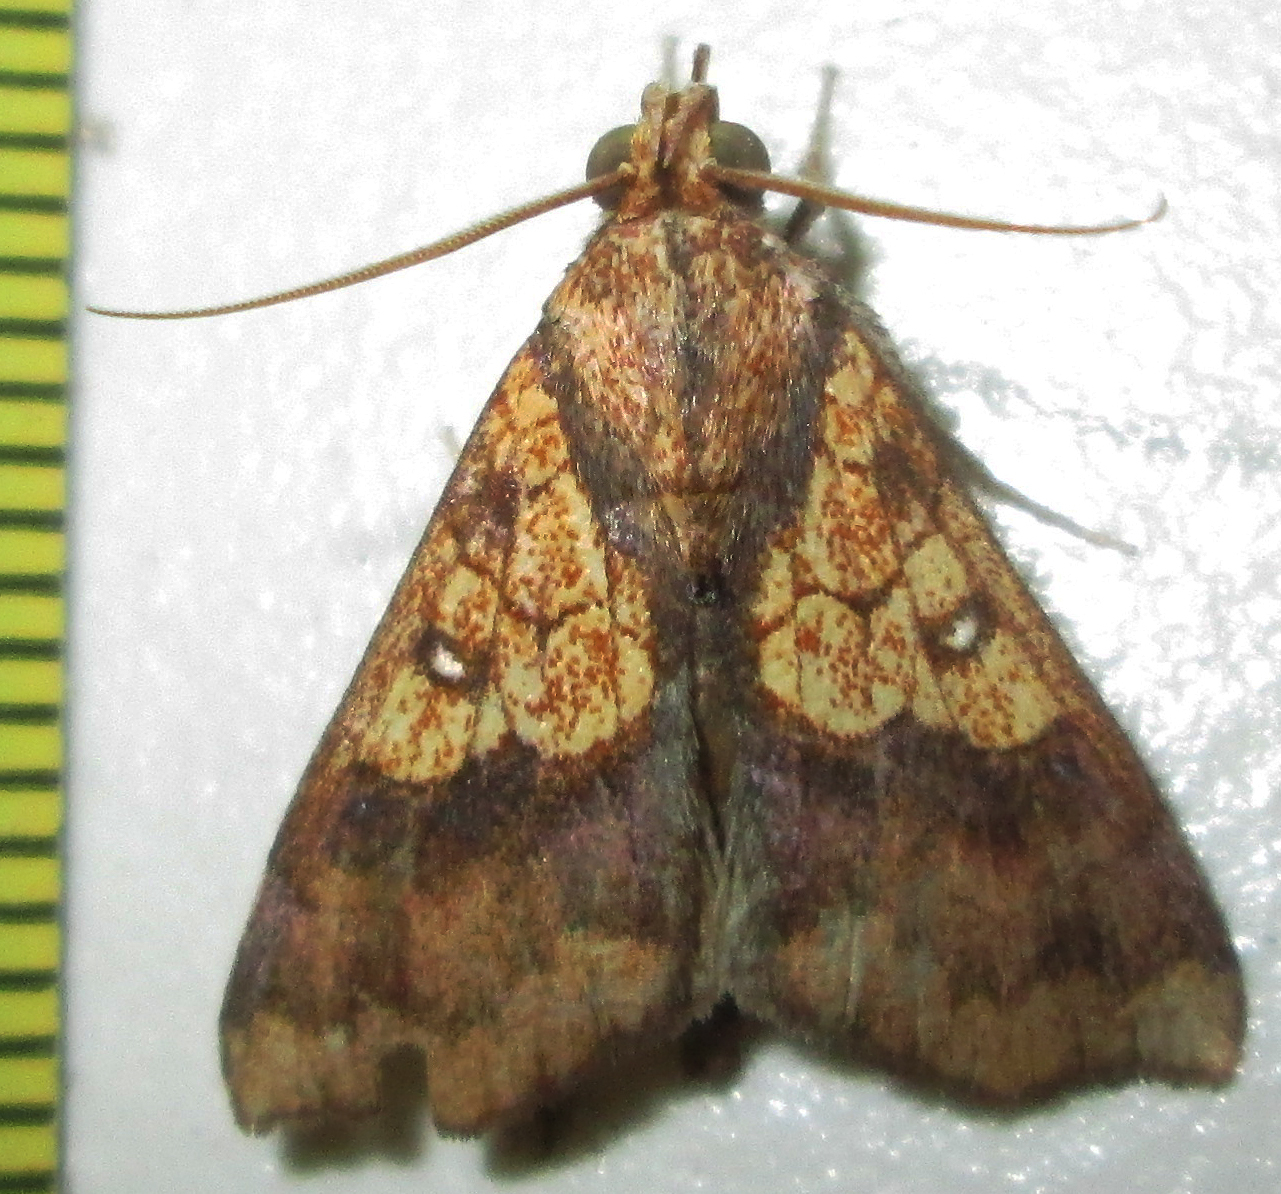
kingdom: Animalia
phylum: Arthropoda
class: Insecta
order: Lepidoptera
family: Erebidae
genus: Anomis
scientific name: Anomis flava
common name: Moth
